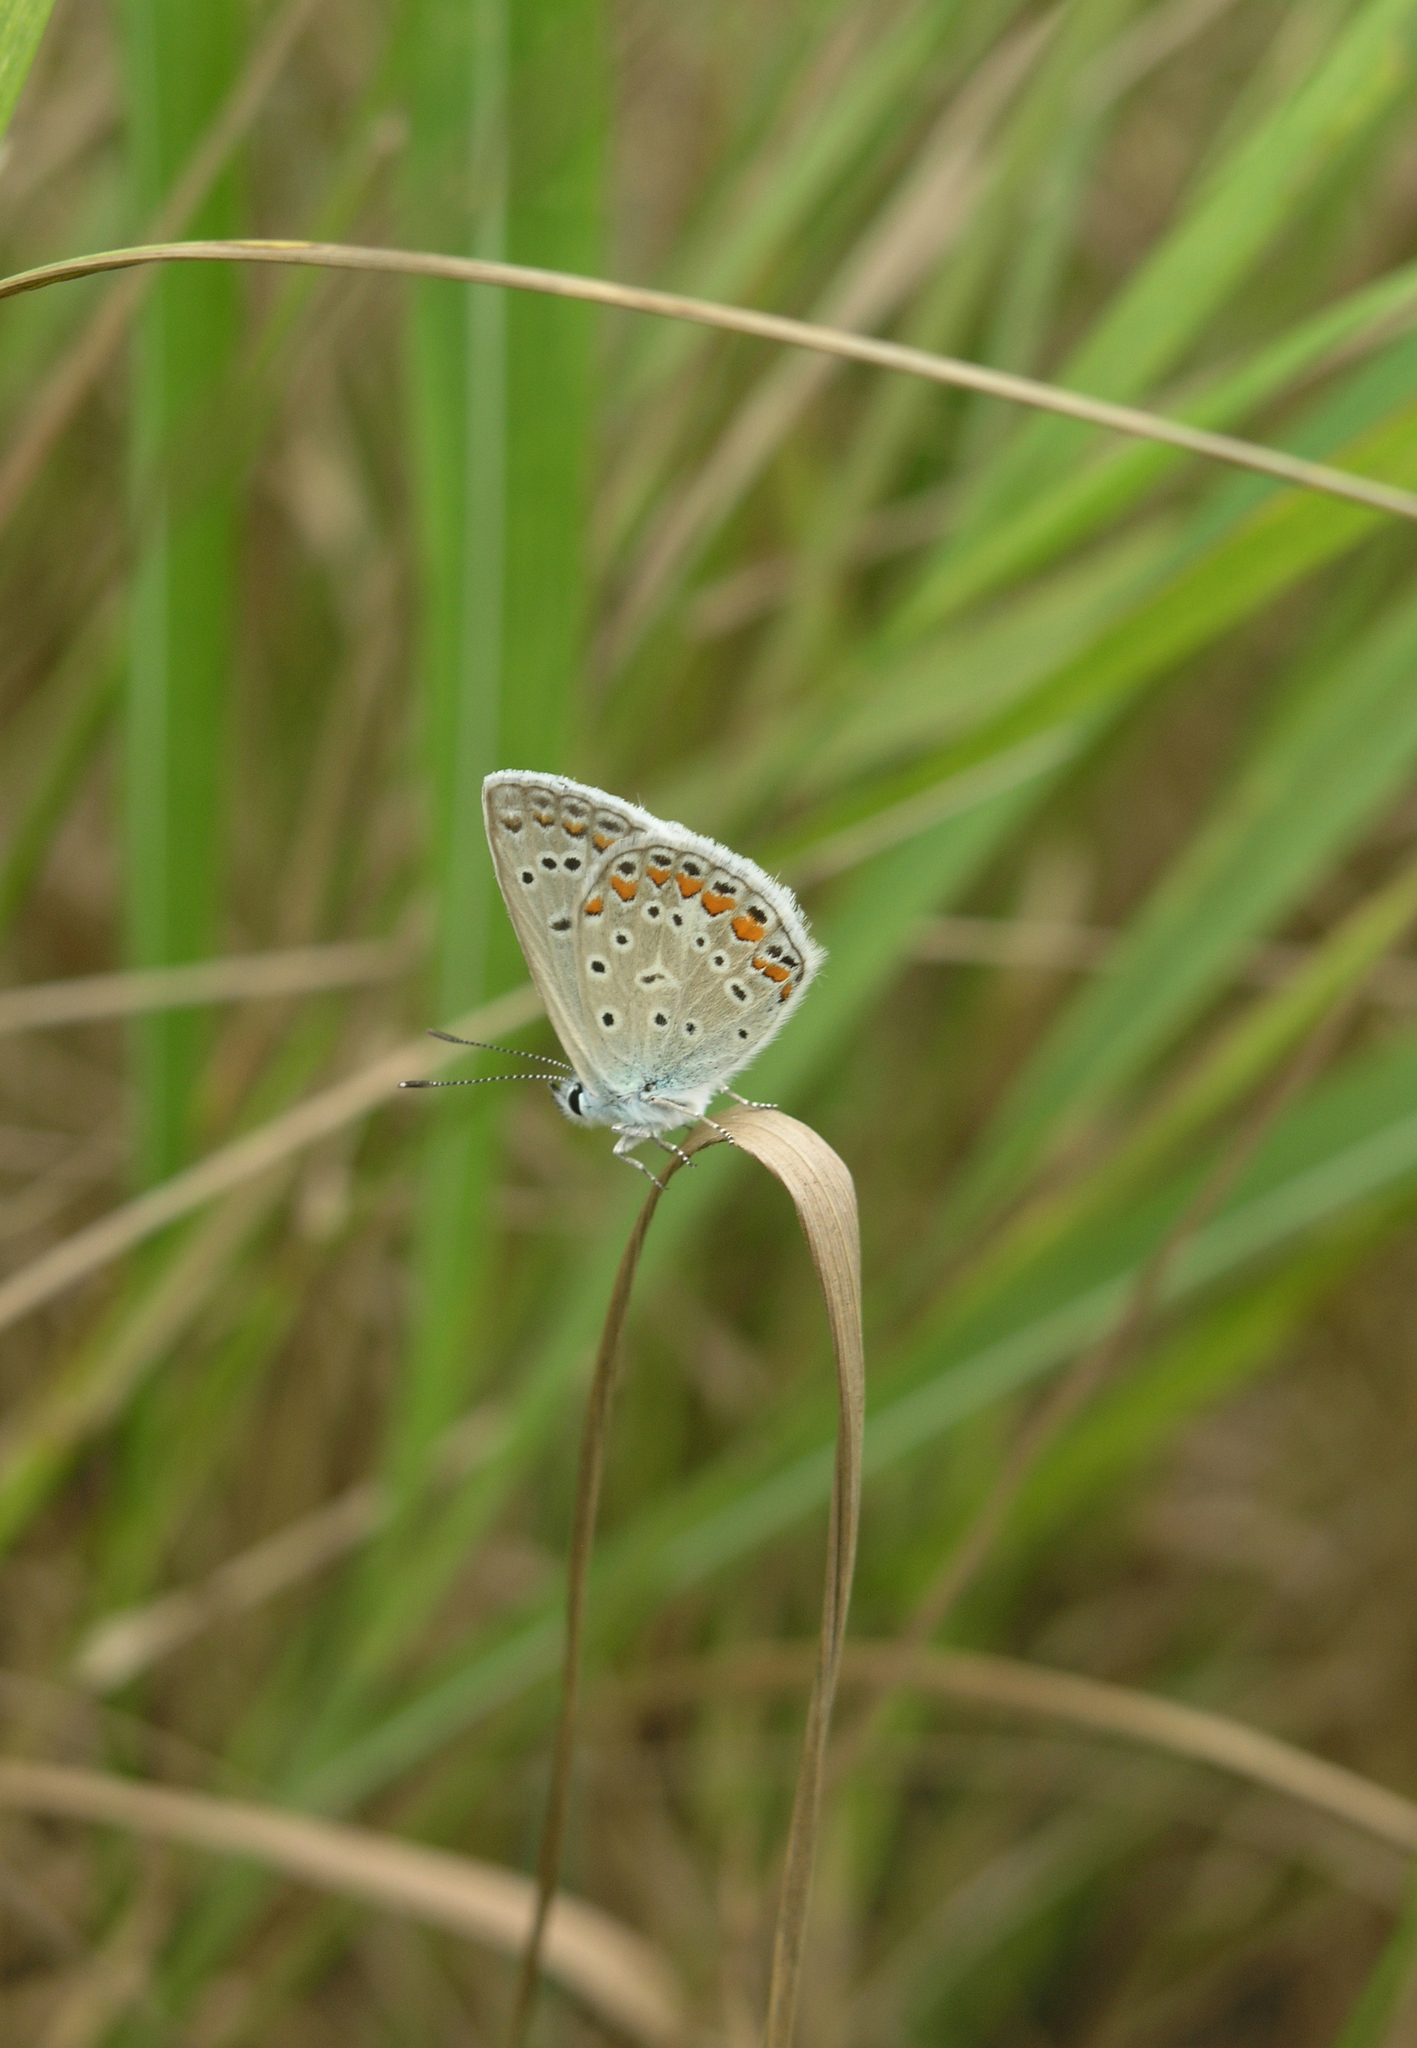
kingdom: Animalia
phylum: Arthropoda
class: Insecta
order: Lepidoptera
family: Lycaenidae
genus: Polyommatus
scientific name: Polyommatus icarus
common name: Common blue
